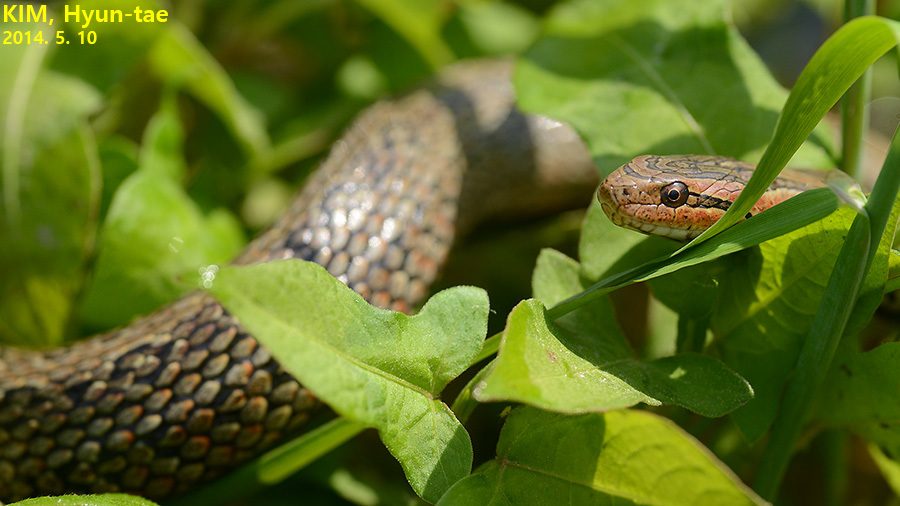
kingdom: Animalia
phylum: Chordata
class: Squamata
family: Colubridae
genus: Oocatochus
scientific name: Oocatochus rufodorsatus
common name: Frog-eating rat snake
